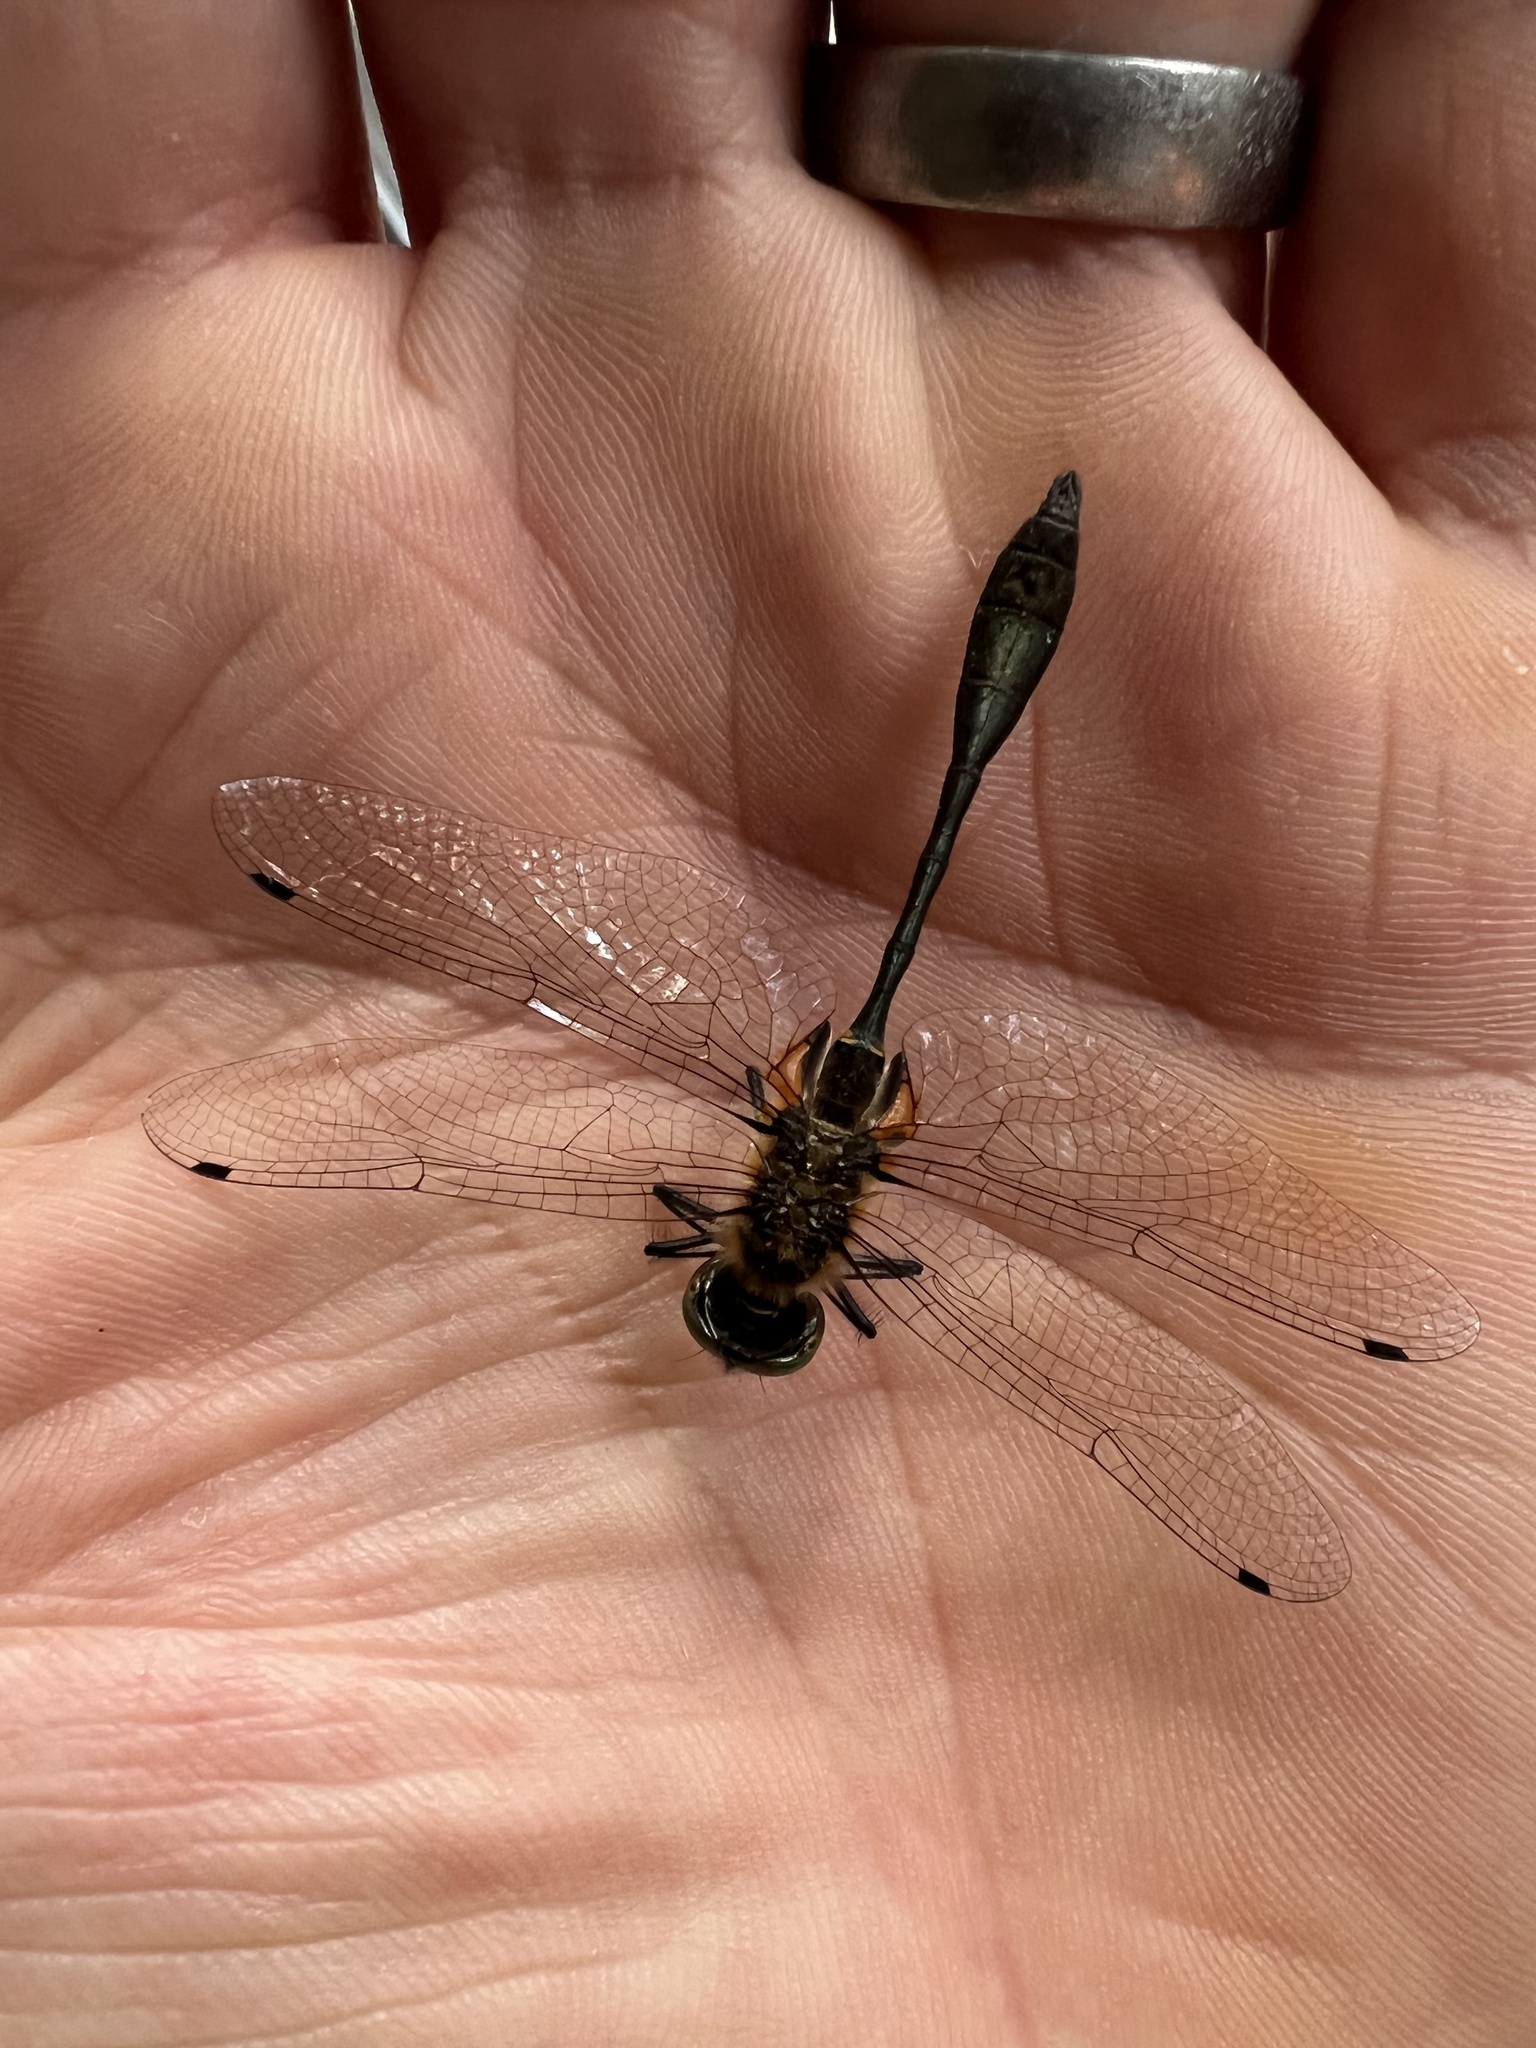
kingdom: Animalia
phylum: Arthropoda
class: Insecta
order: Odonata
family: Corduliidae
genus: Dorocordulia
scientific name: Dorocordulia libera
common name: Racket-tailed emerald
